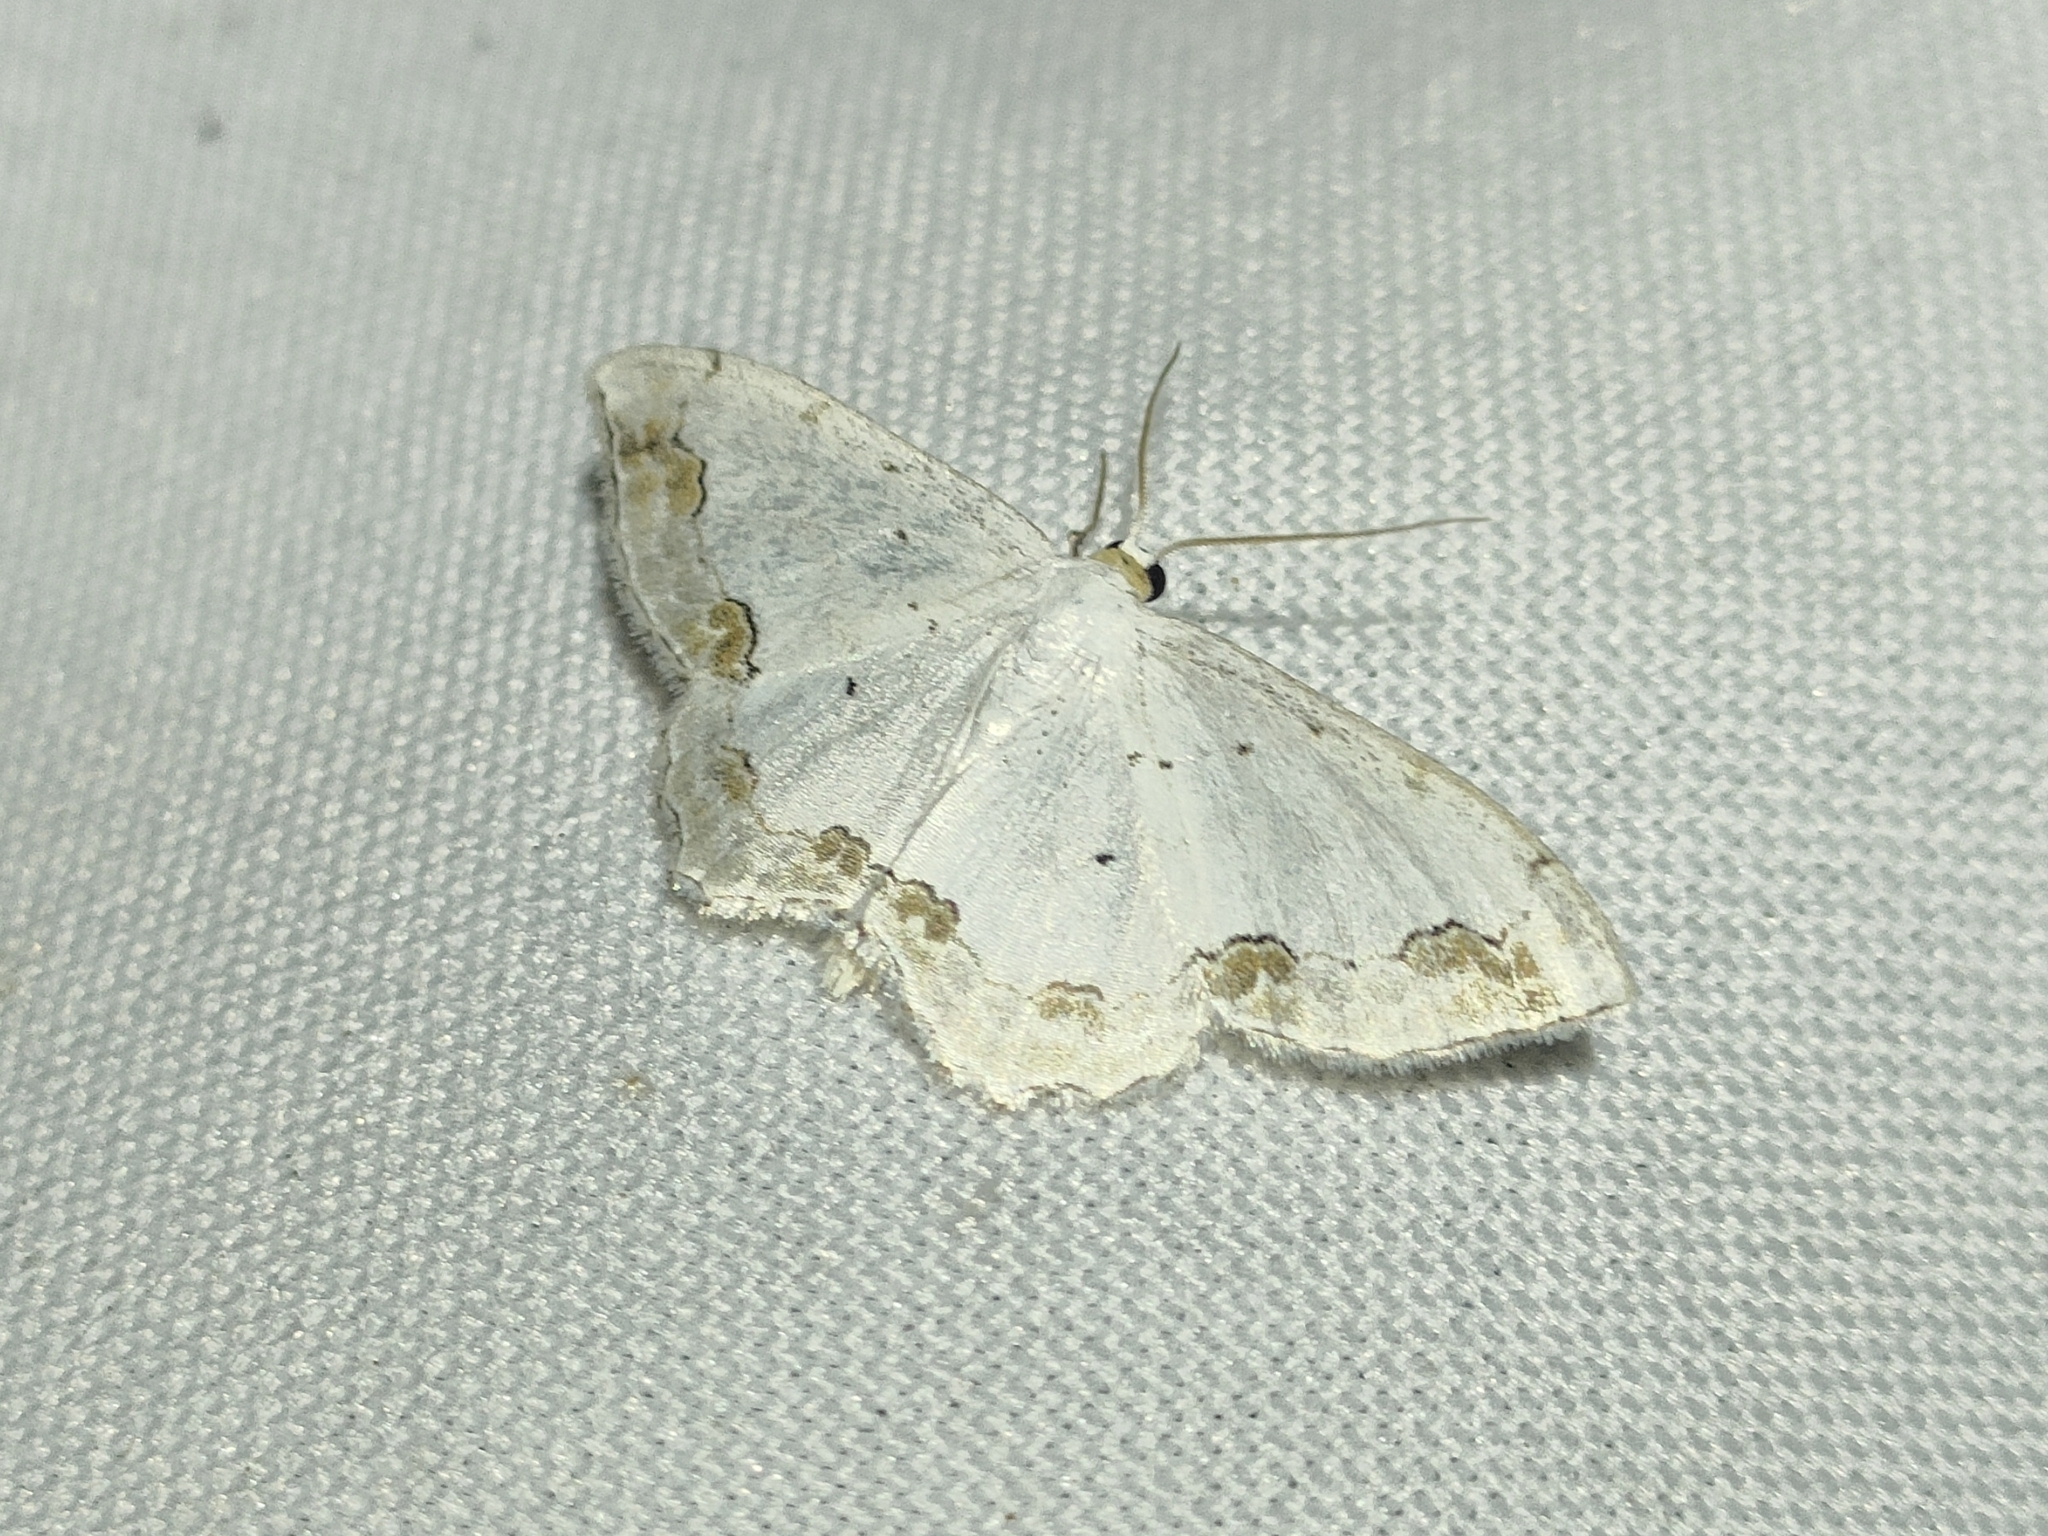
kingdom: Animalia
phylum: Arthropoda
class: Insecta
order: Lepidoptera
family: Geometridae
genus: Scopula
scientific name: Scopula ornata
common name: Lace border
